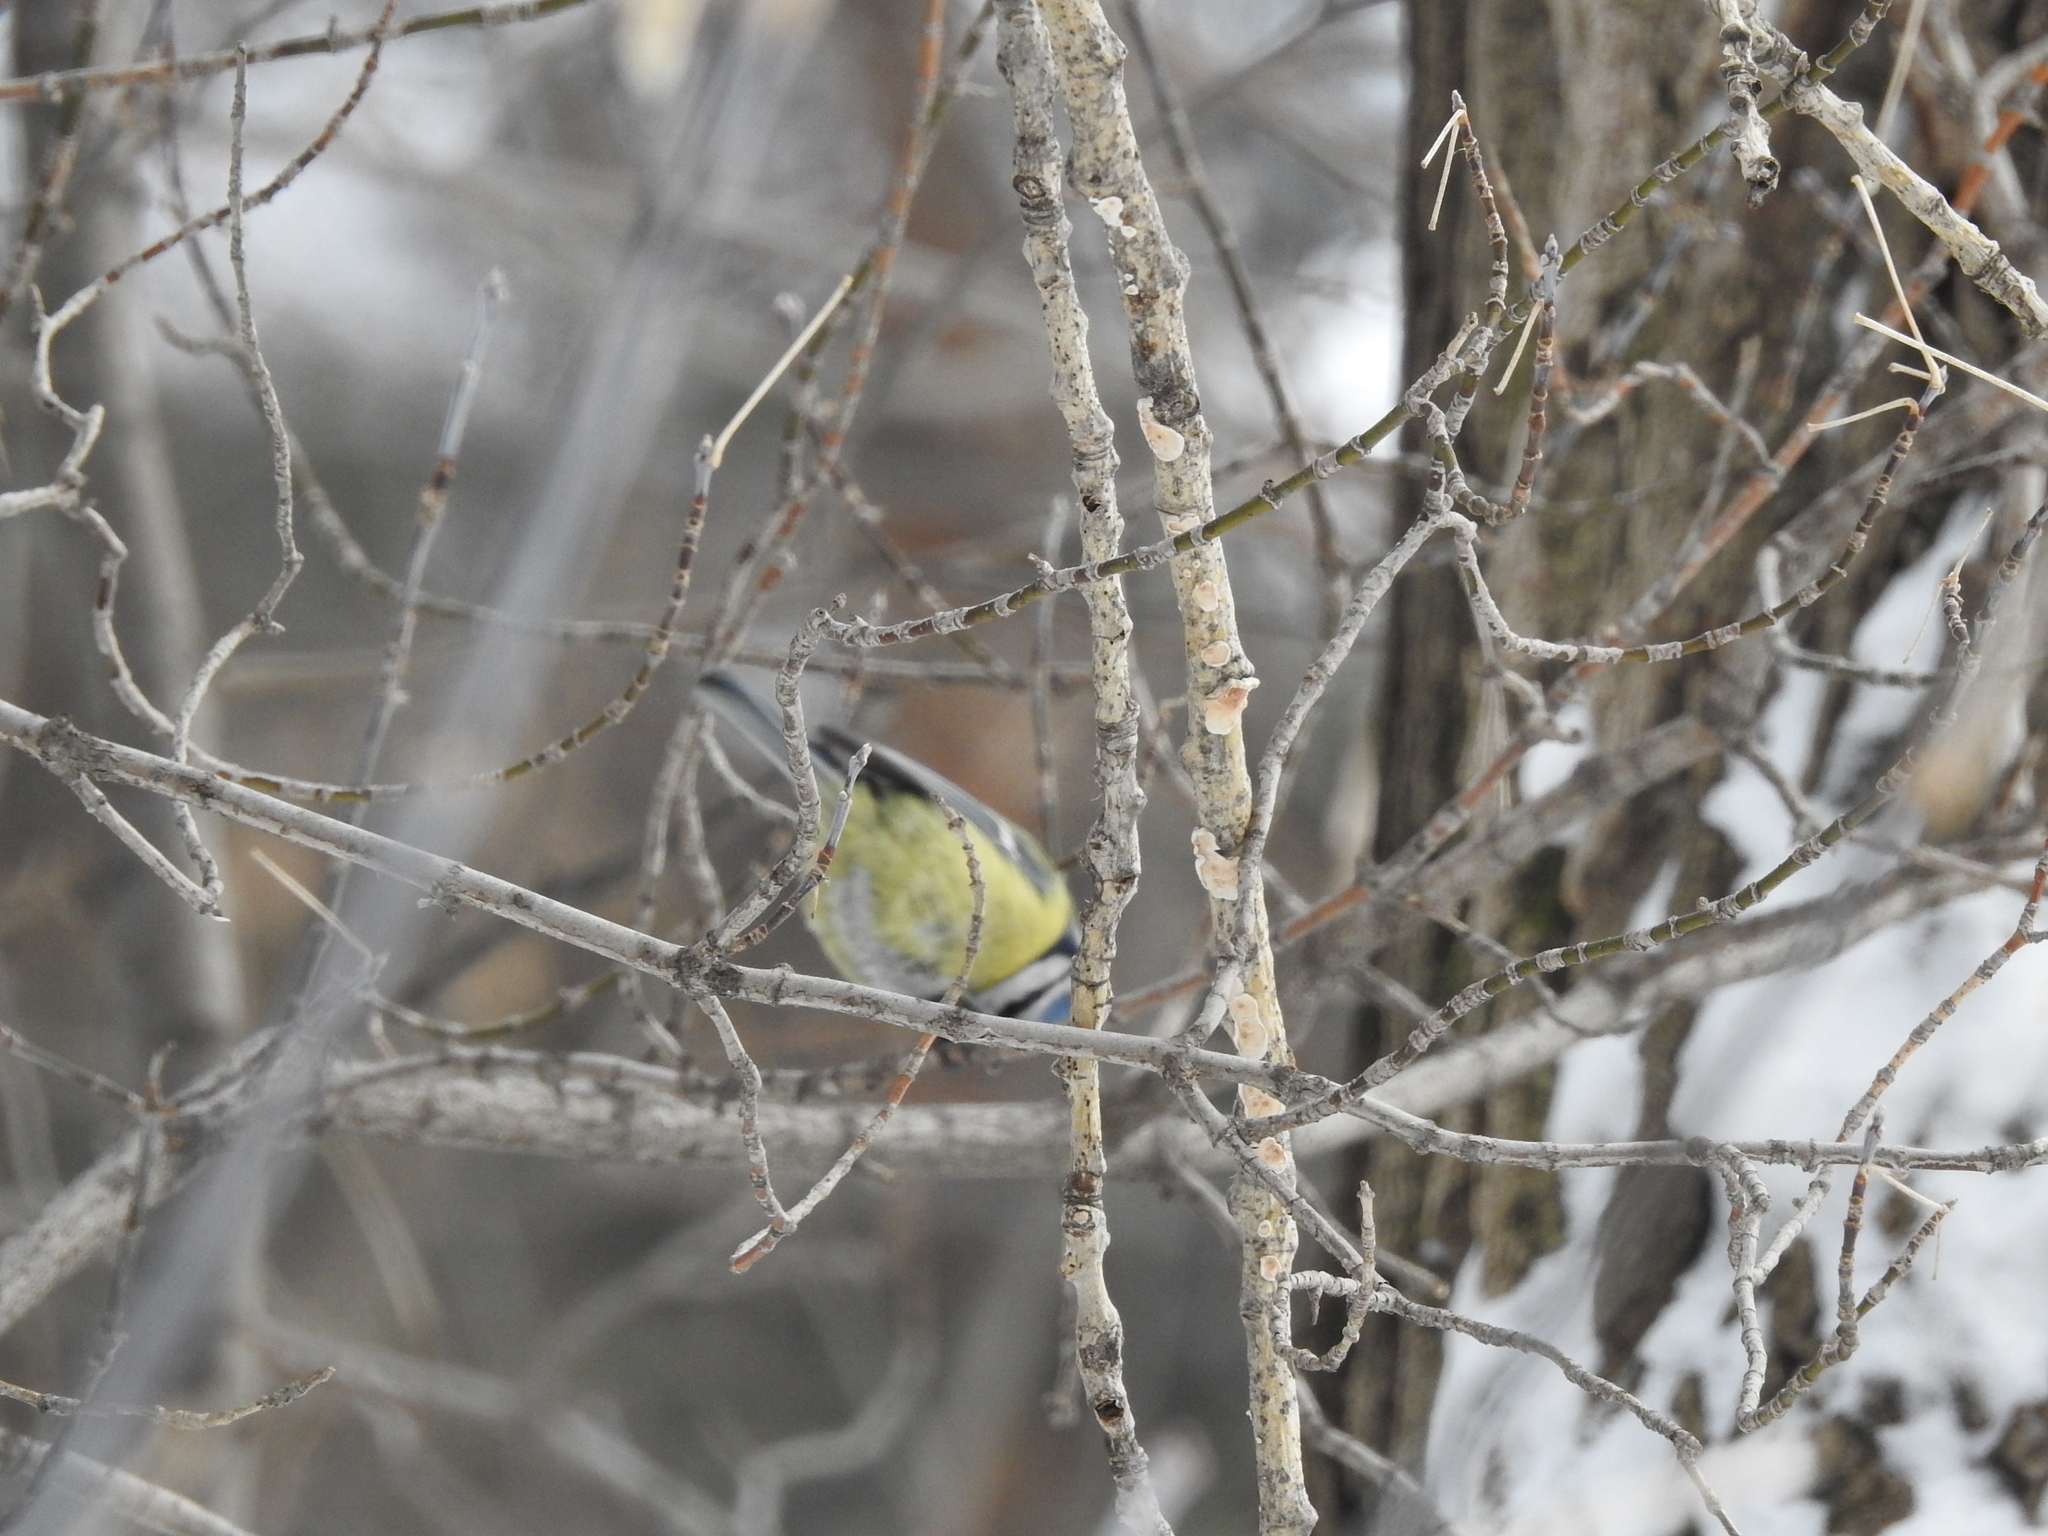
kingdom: Animalia
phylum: Chordata
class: Aves
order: Passeriformes
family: Paridae
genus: Cyanistes
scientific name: Cyanistes caeruleus
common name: Eurasian blue tit
